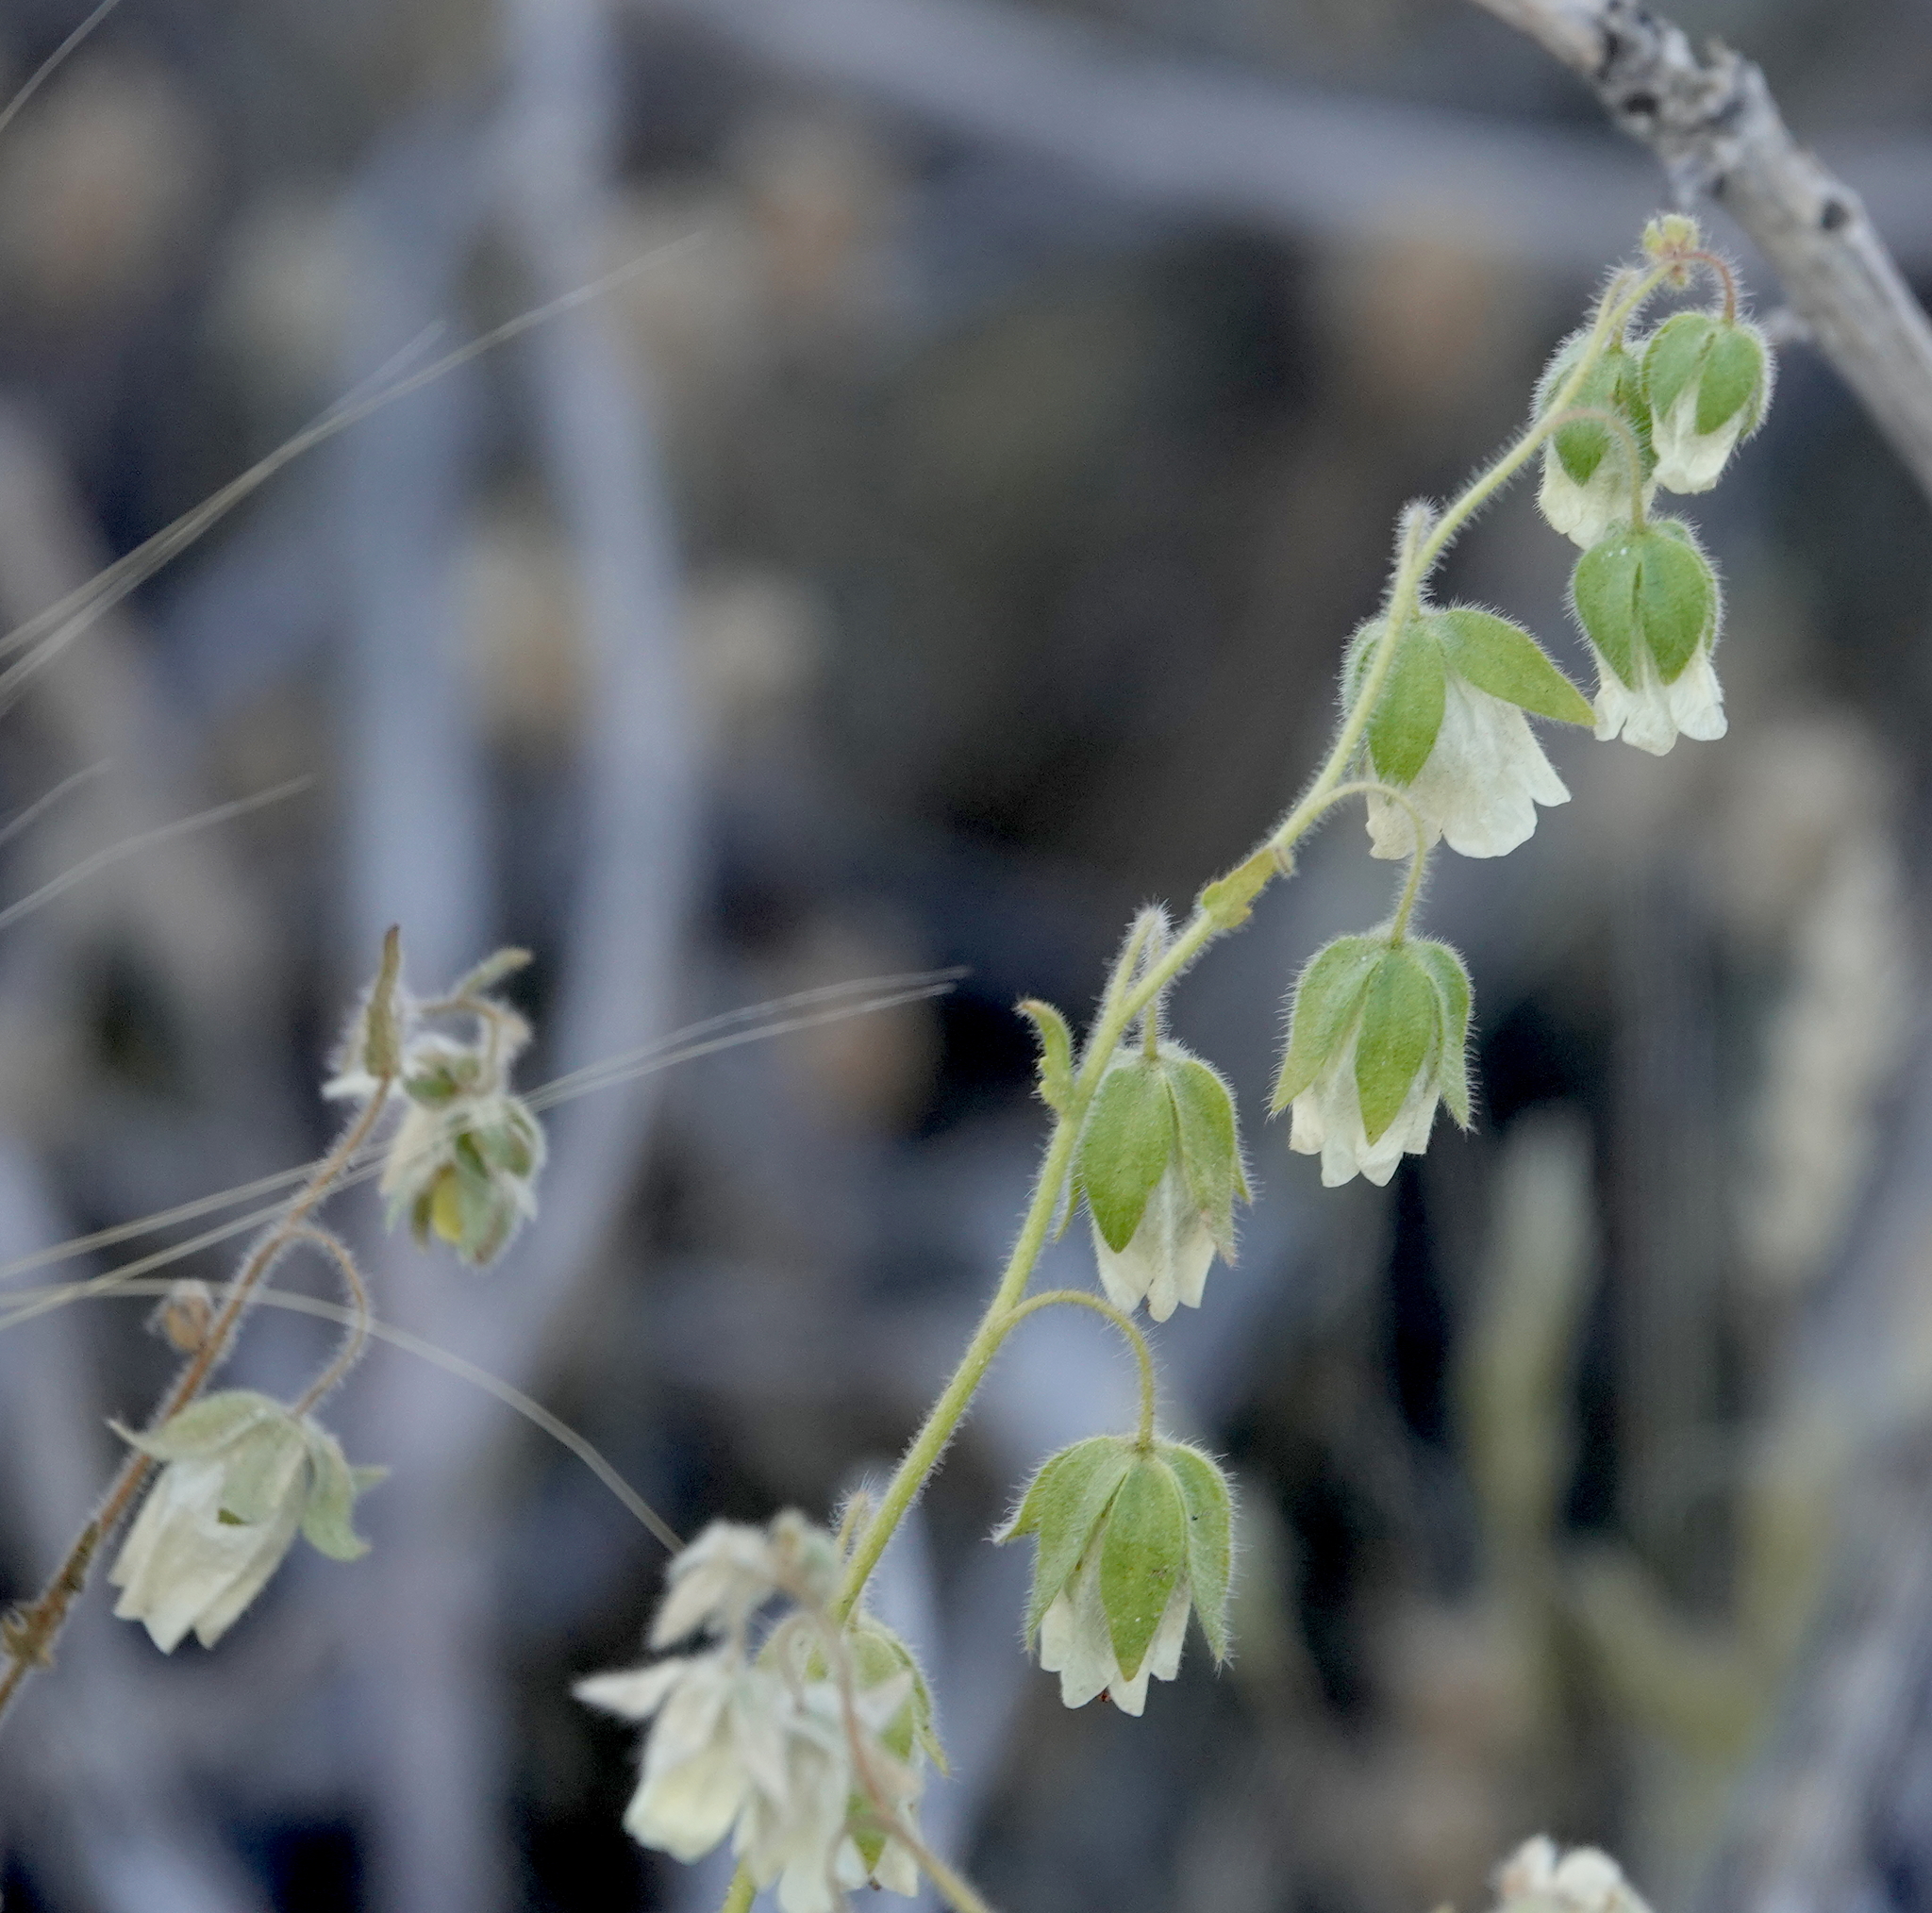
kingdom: Plantae
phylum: Tracheophyta
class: Magnoliopsida
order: Boraginales
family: Hydrophyllaceae
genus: Emmenanthe
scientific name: Emmenanthe penduliflora
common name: Whispering-bells
